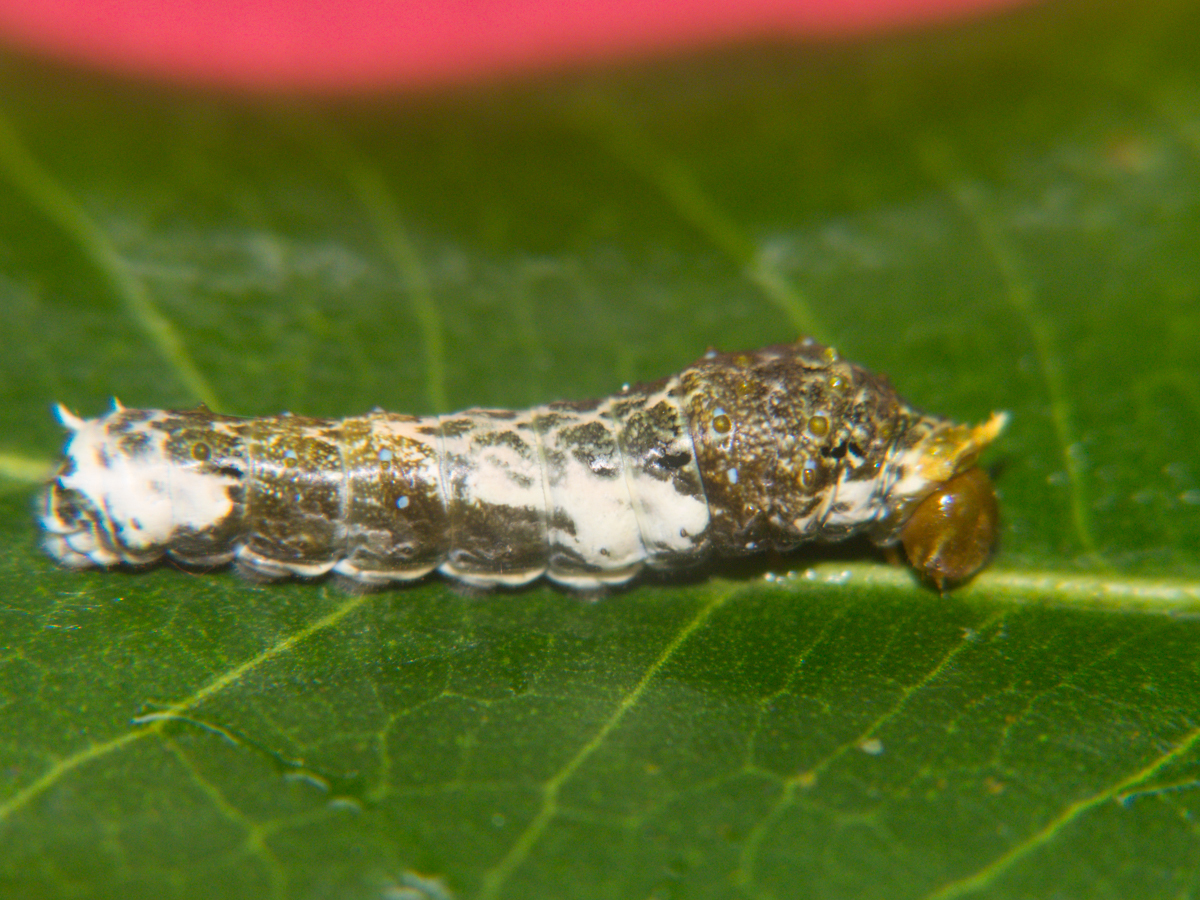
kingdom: Animalia
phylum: Arthropoda
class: Insecta
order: Lepidoptera
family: Papilionidae
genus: Papilio
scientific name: Papilio polytes
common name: Common mormon
